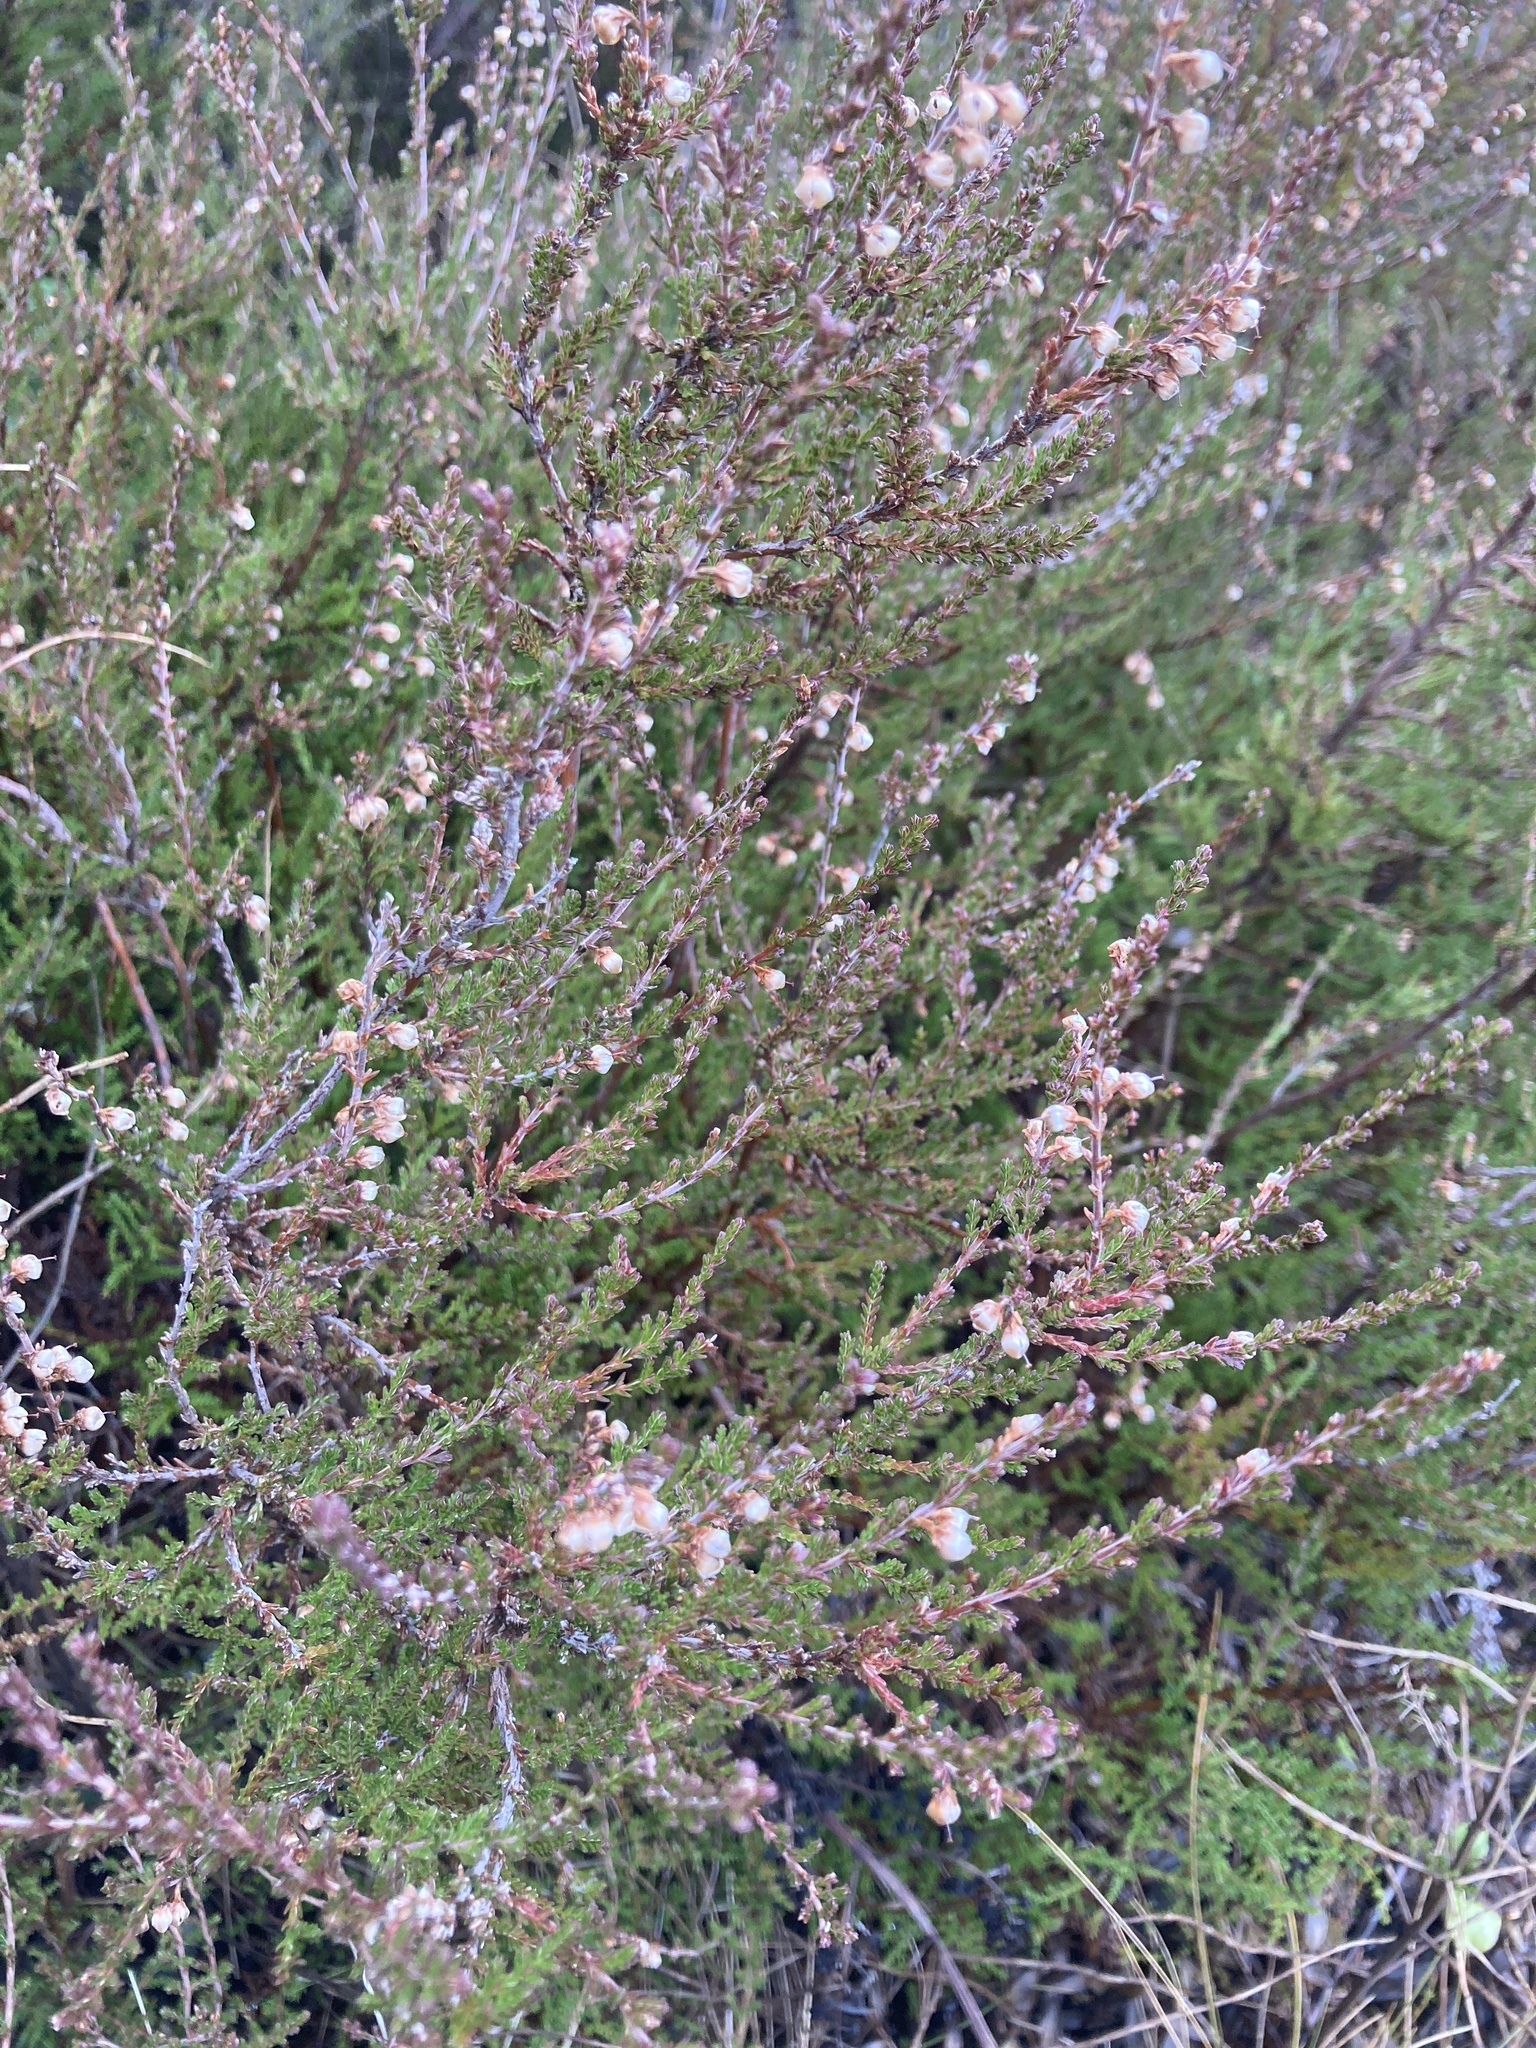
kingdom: Plantae
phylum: Tracheophyta
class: Magnoliopsida
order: Ericales
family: Ericaceae
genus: Calluna
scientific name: Calluna vulgaris
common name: Heather
